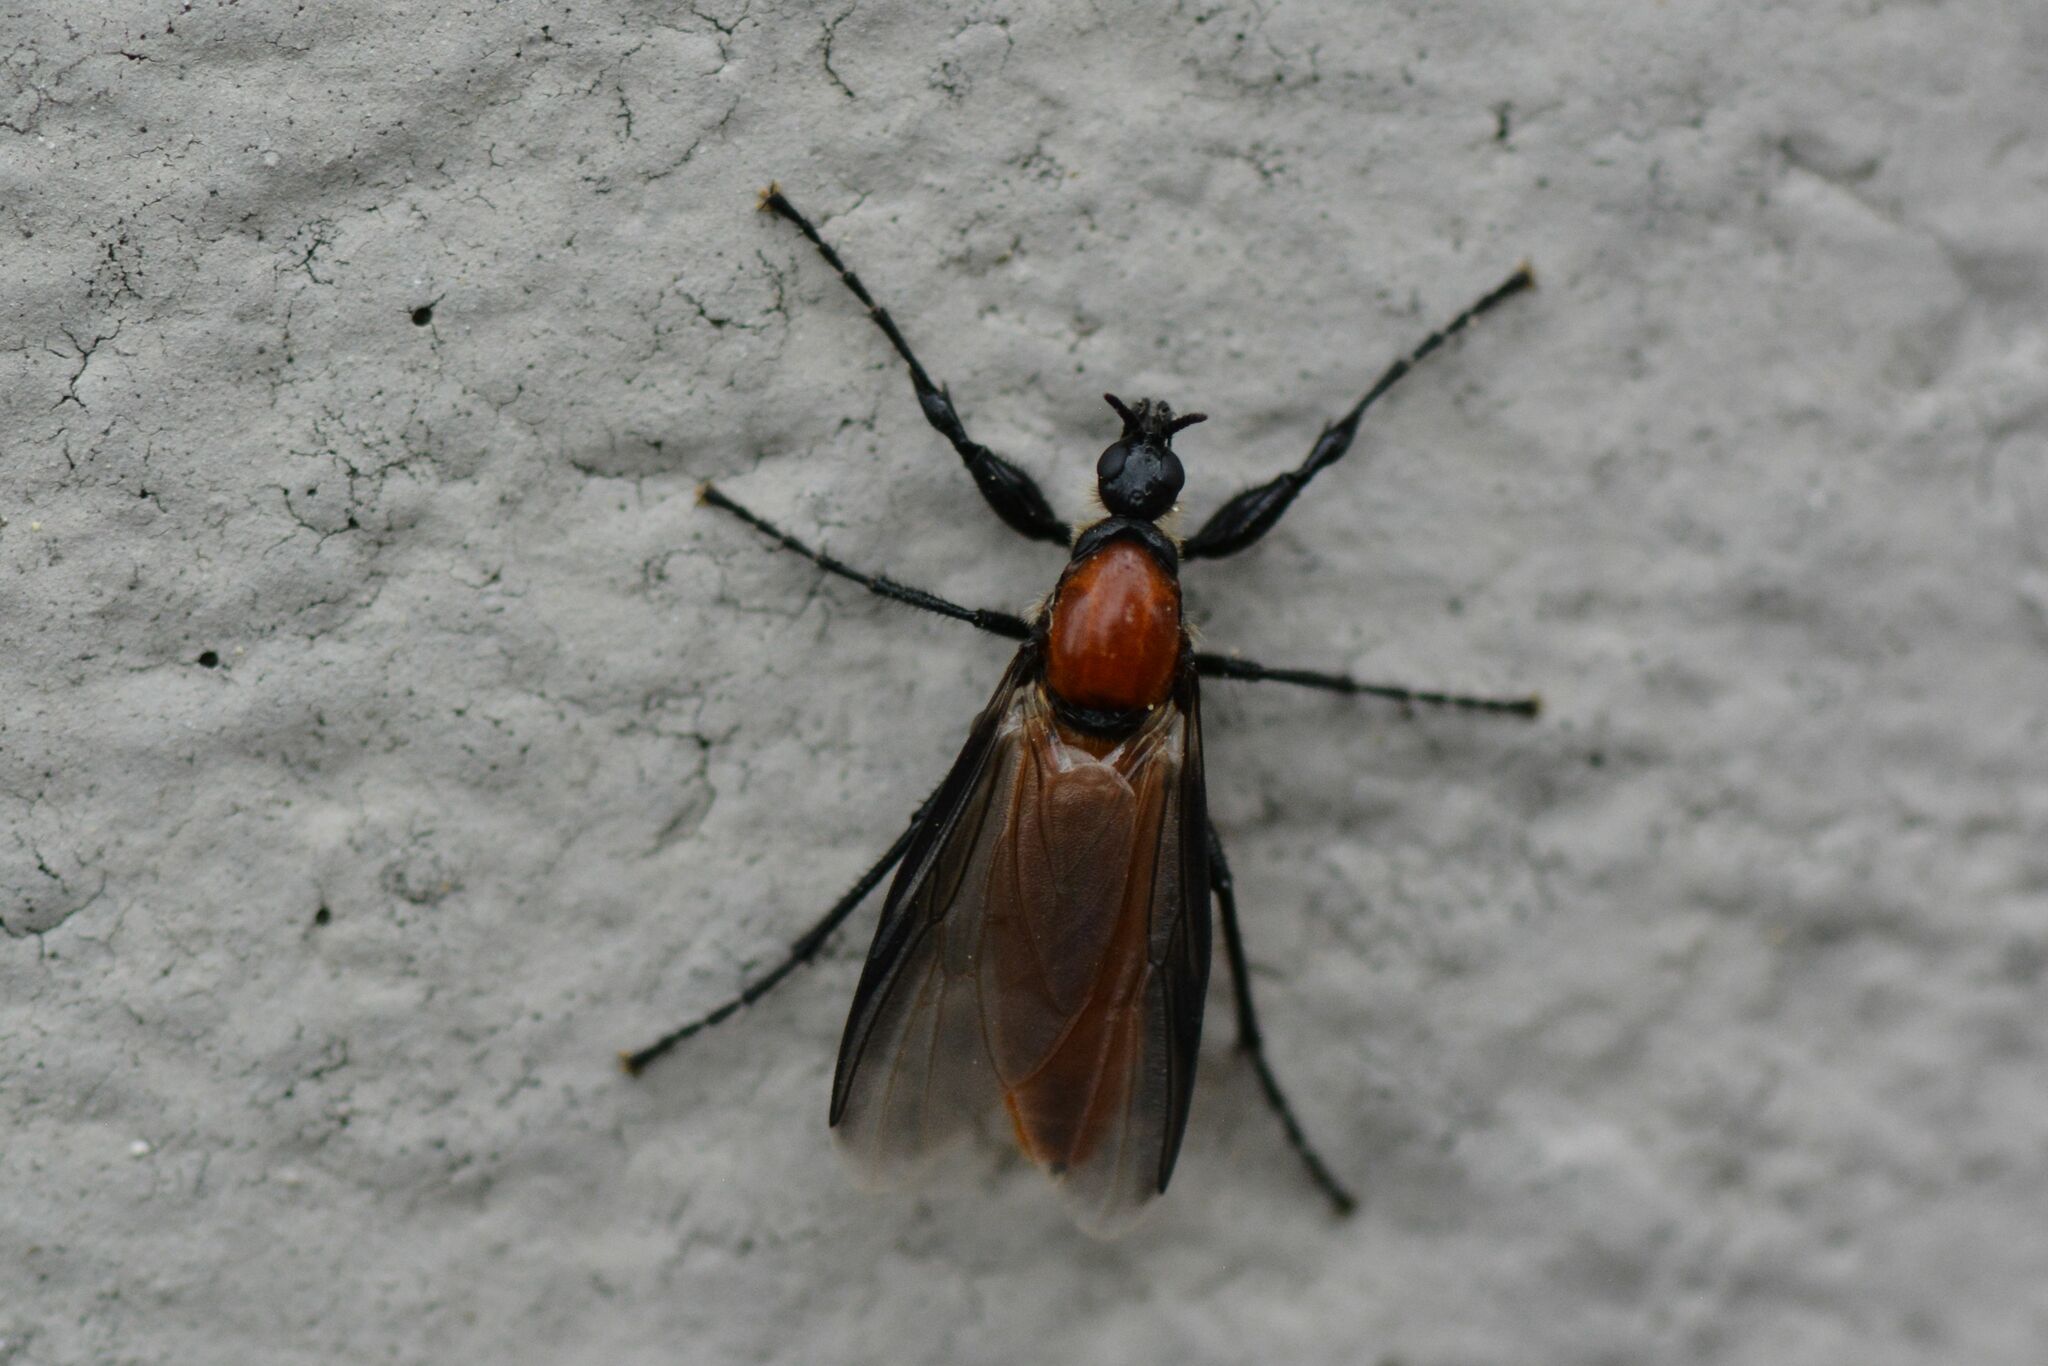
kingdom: Animalia
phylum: Arthropoda
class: Insecta
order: Diptera
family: Bibionidae
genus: Bibio
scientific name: Bibio hortulanus
